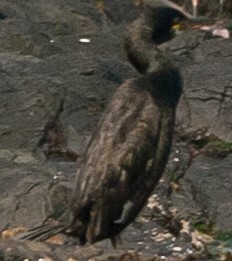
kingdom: Animalia
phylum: Chordata
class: Aves
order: Suliformes
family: Phalacrocoracidae
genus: Phalacrocorax
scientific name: Phalacrocorax aristotelis
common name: European shag
